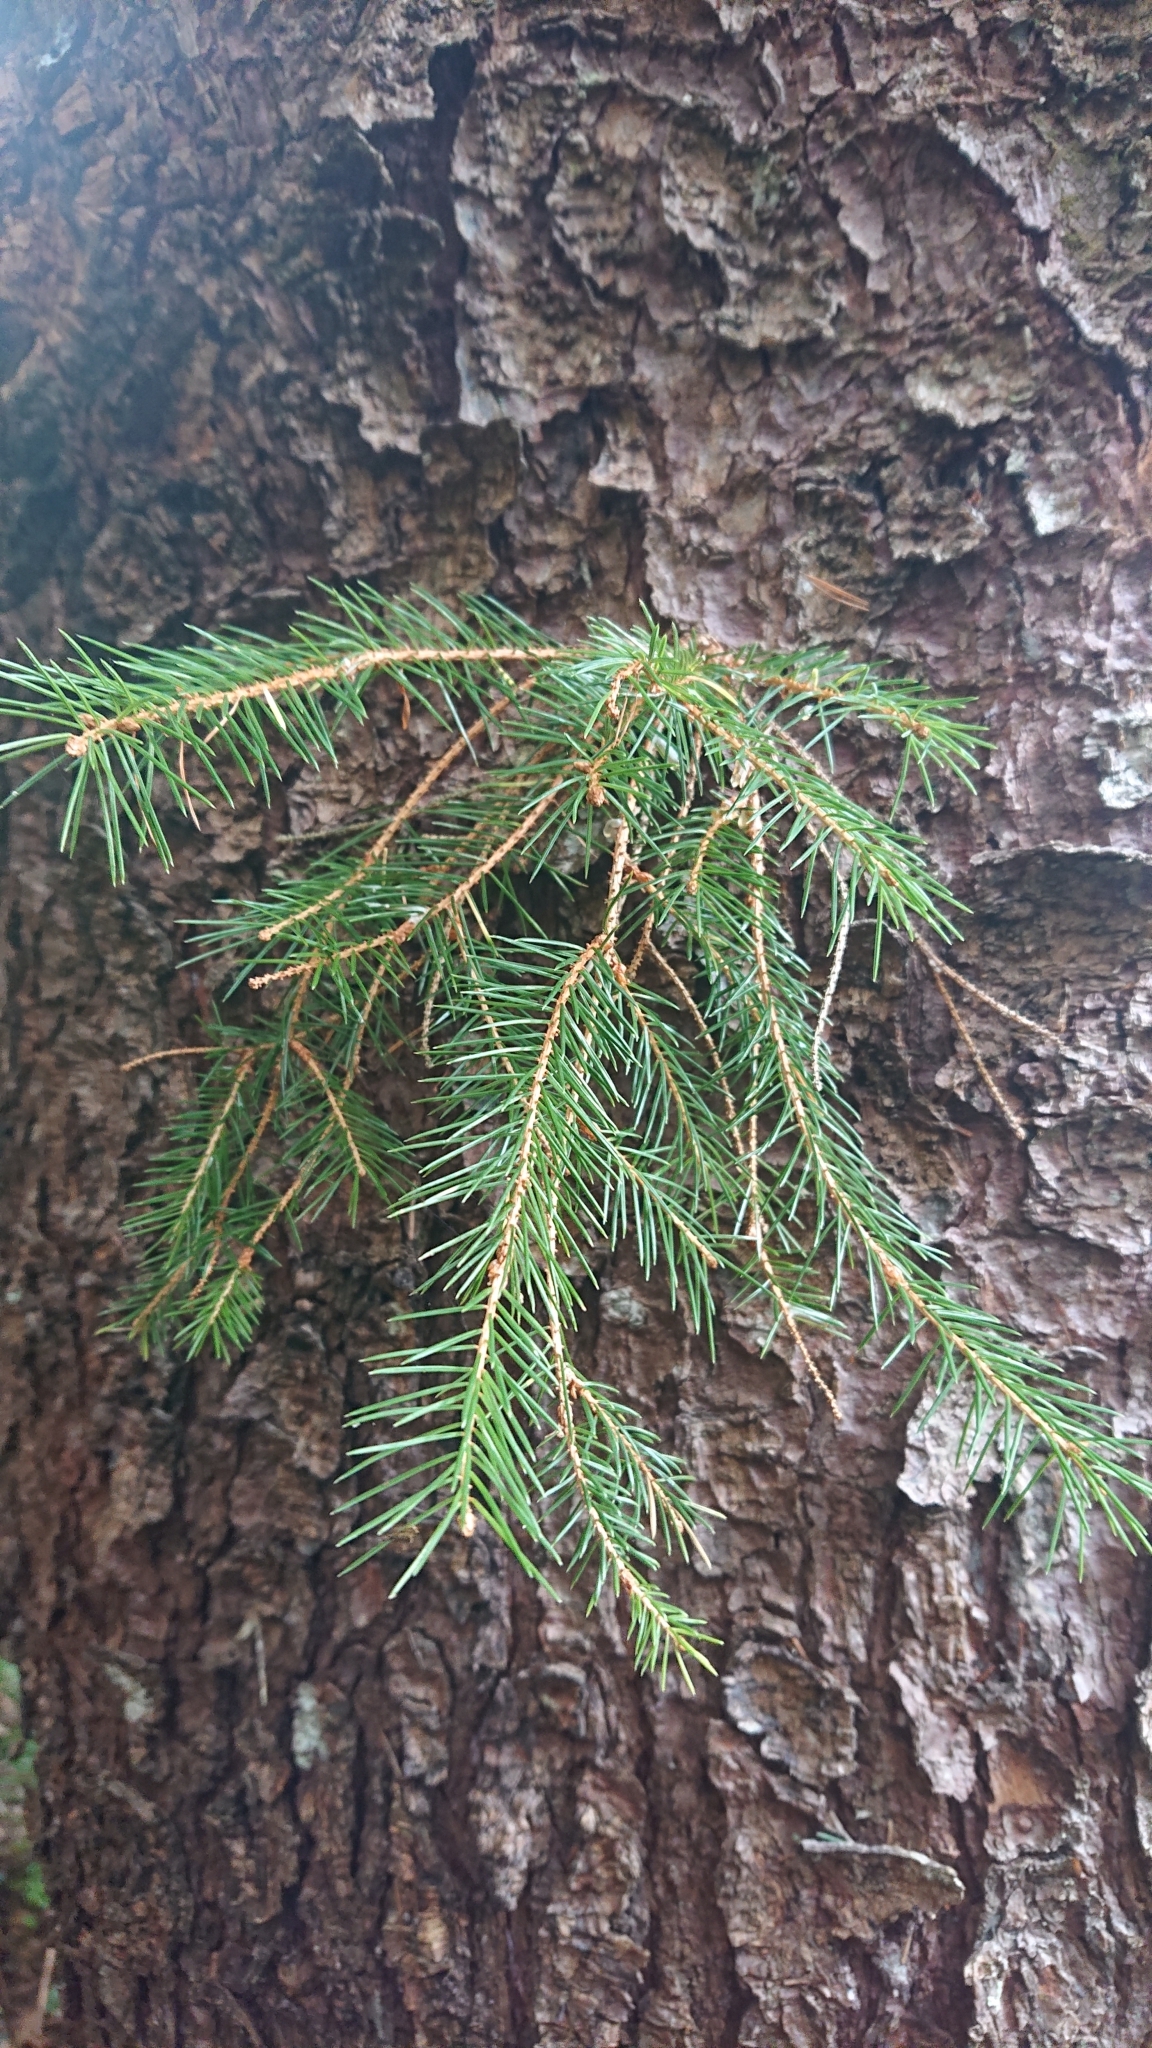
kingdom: Plantae
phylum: Tracheophyta
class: Pinopsida
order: Pinales
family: Pinaceae
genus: Picea
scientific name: Picea sitchensis
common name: Sitka spruce
